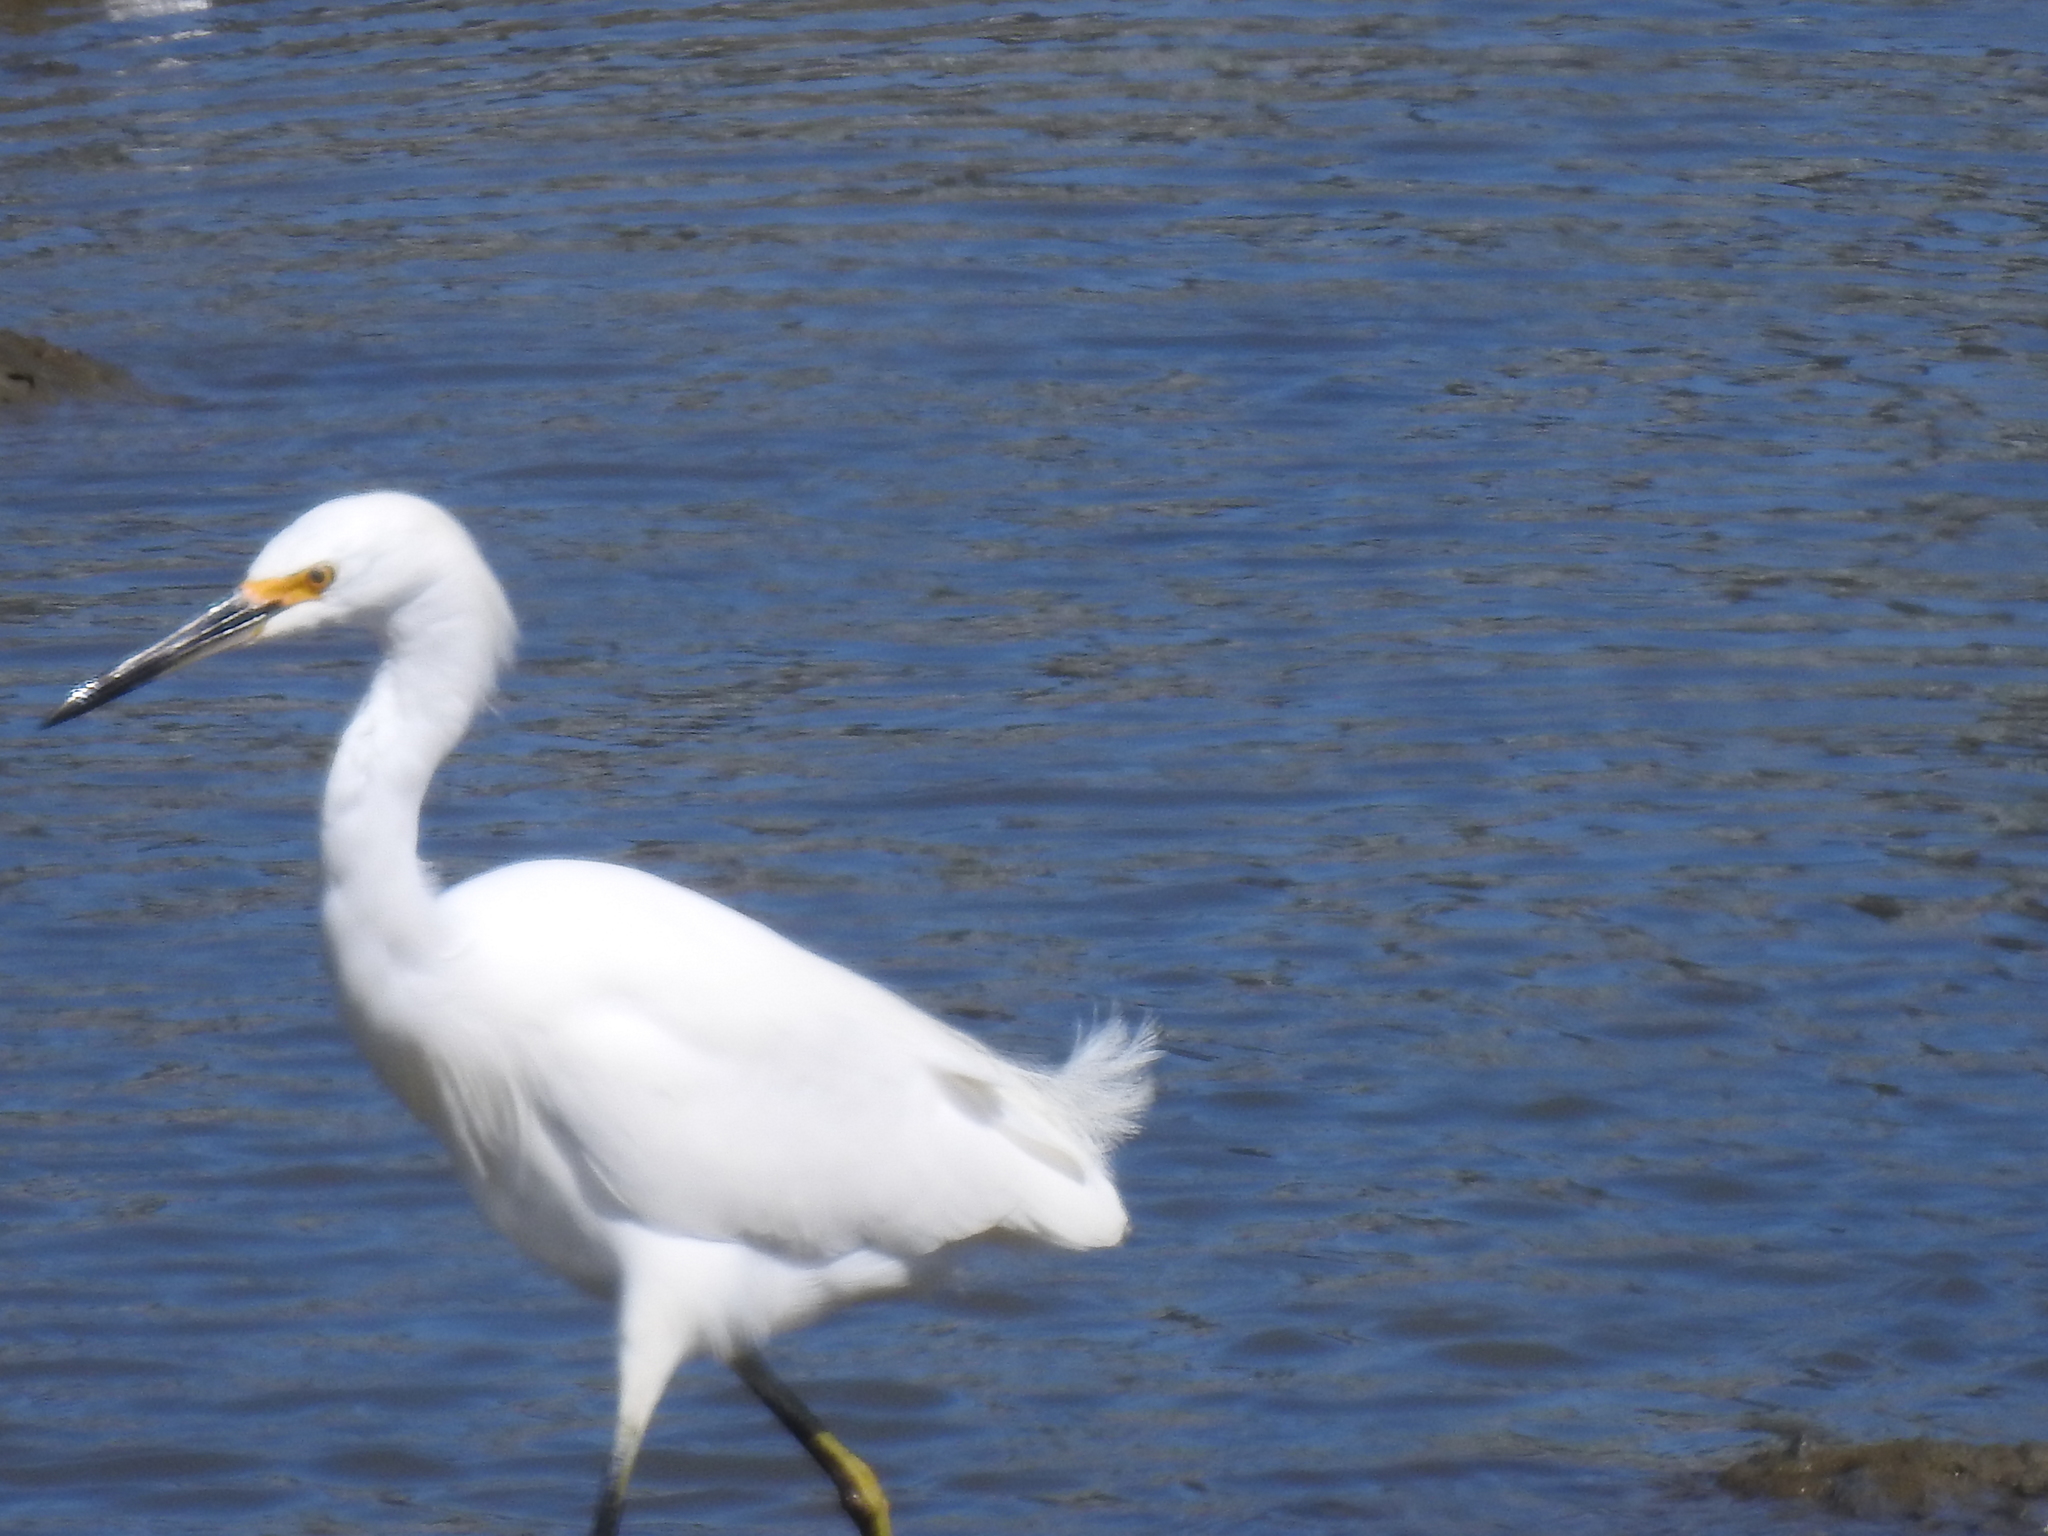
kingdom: Animalia
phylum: Chordata
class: Aves
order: Pelecaniformes
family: Ardeidae
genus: Egretta
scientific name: Egretta thula
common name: Snowy egret
